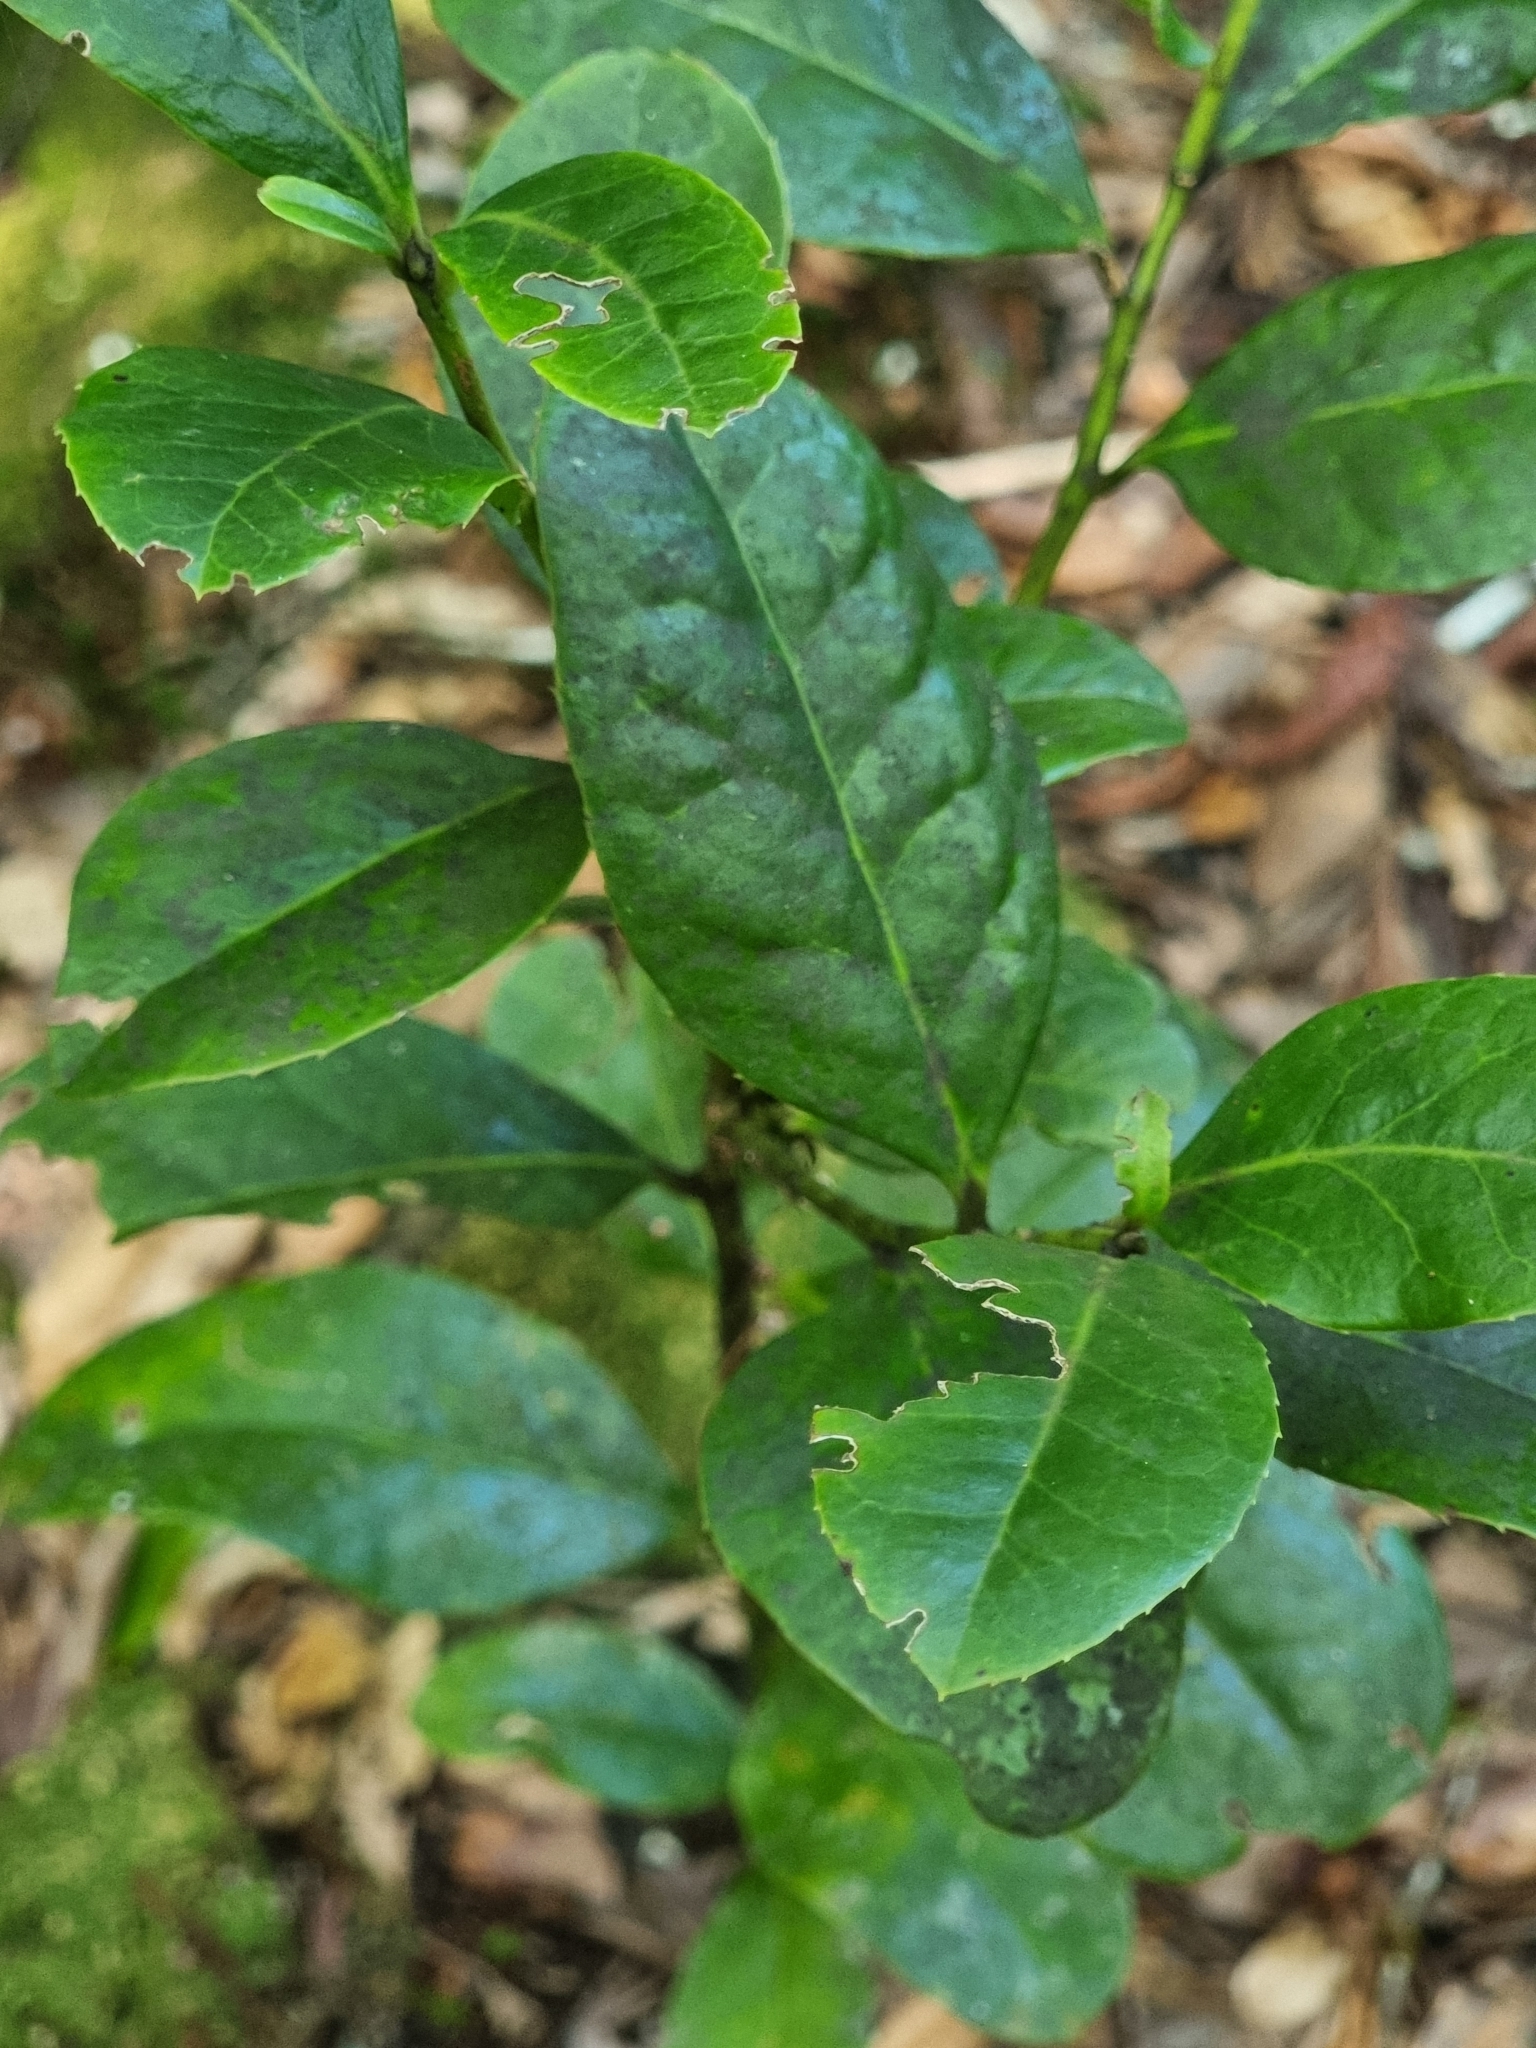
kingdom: Plantae
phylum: Tracheophyta
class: Magnoliopsida
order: Aquifoliales
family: Aquifoliaceae
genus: Ilex
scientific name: Ilex perado
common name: Madeira holly
